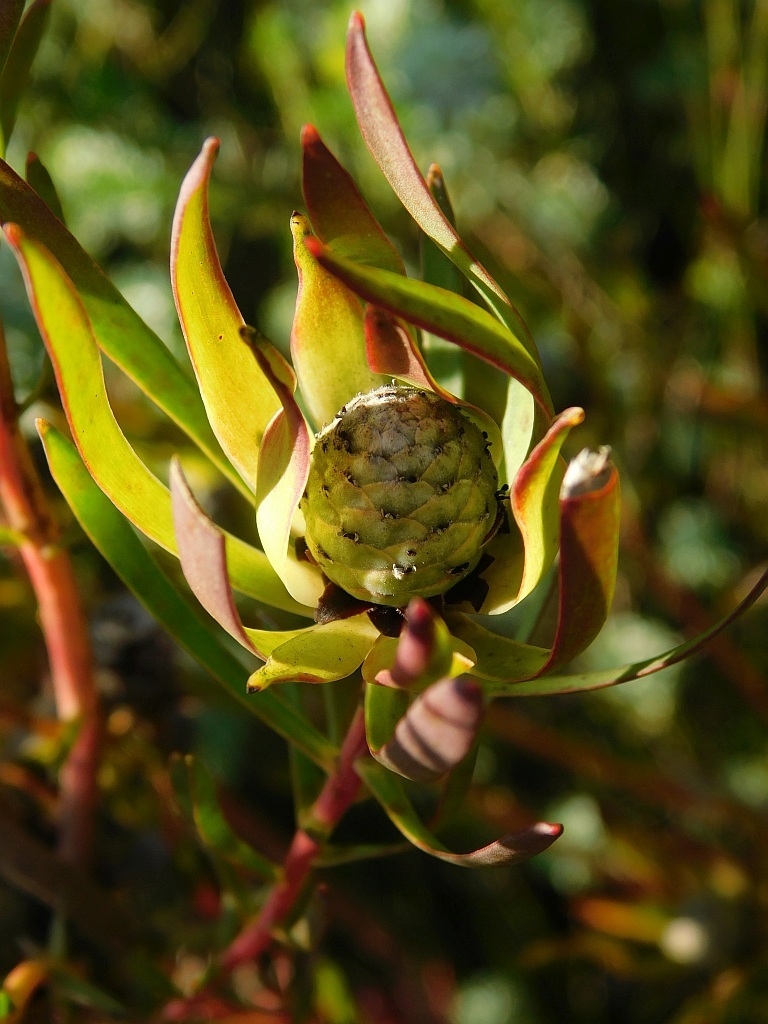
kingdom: Plantae
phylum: Tracheophyta
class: Magnoliopsida
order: Proteales
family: Proteaceae
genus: Leucadendron
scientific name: Leucadendron salignum
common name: Common sunshine conebush
